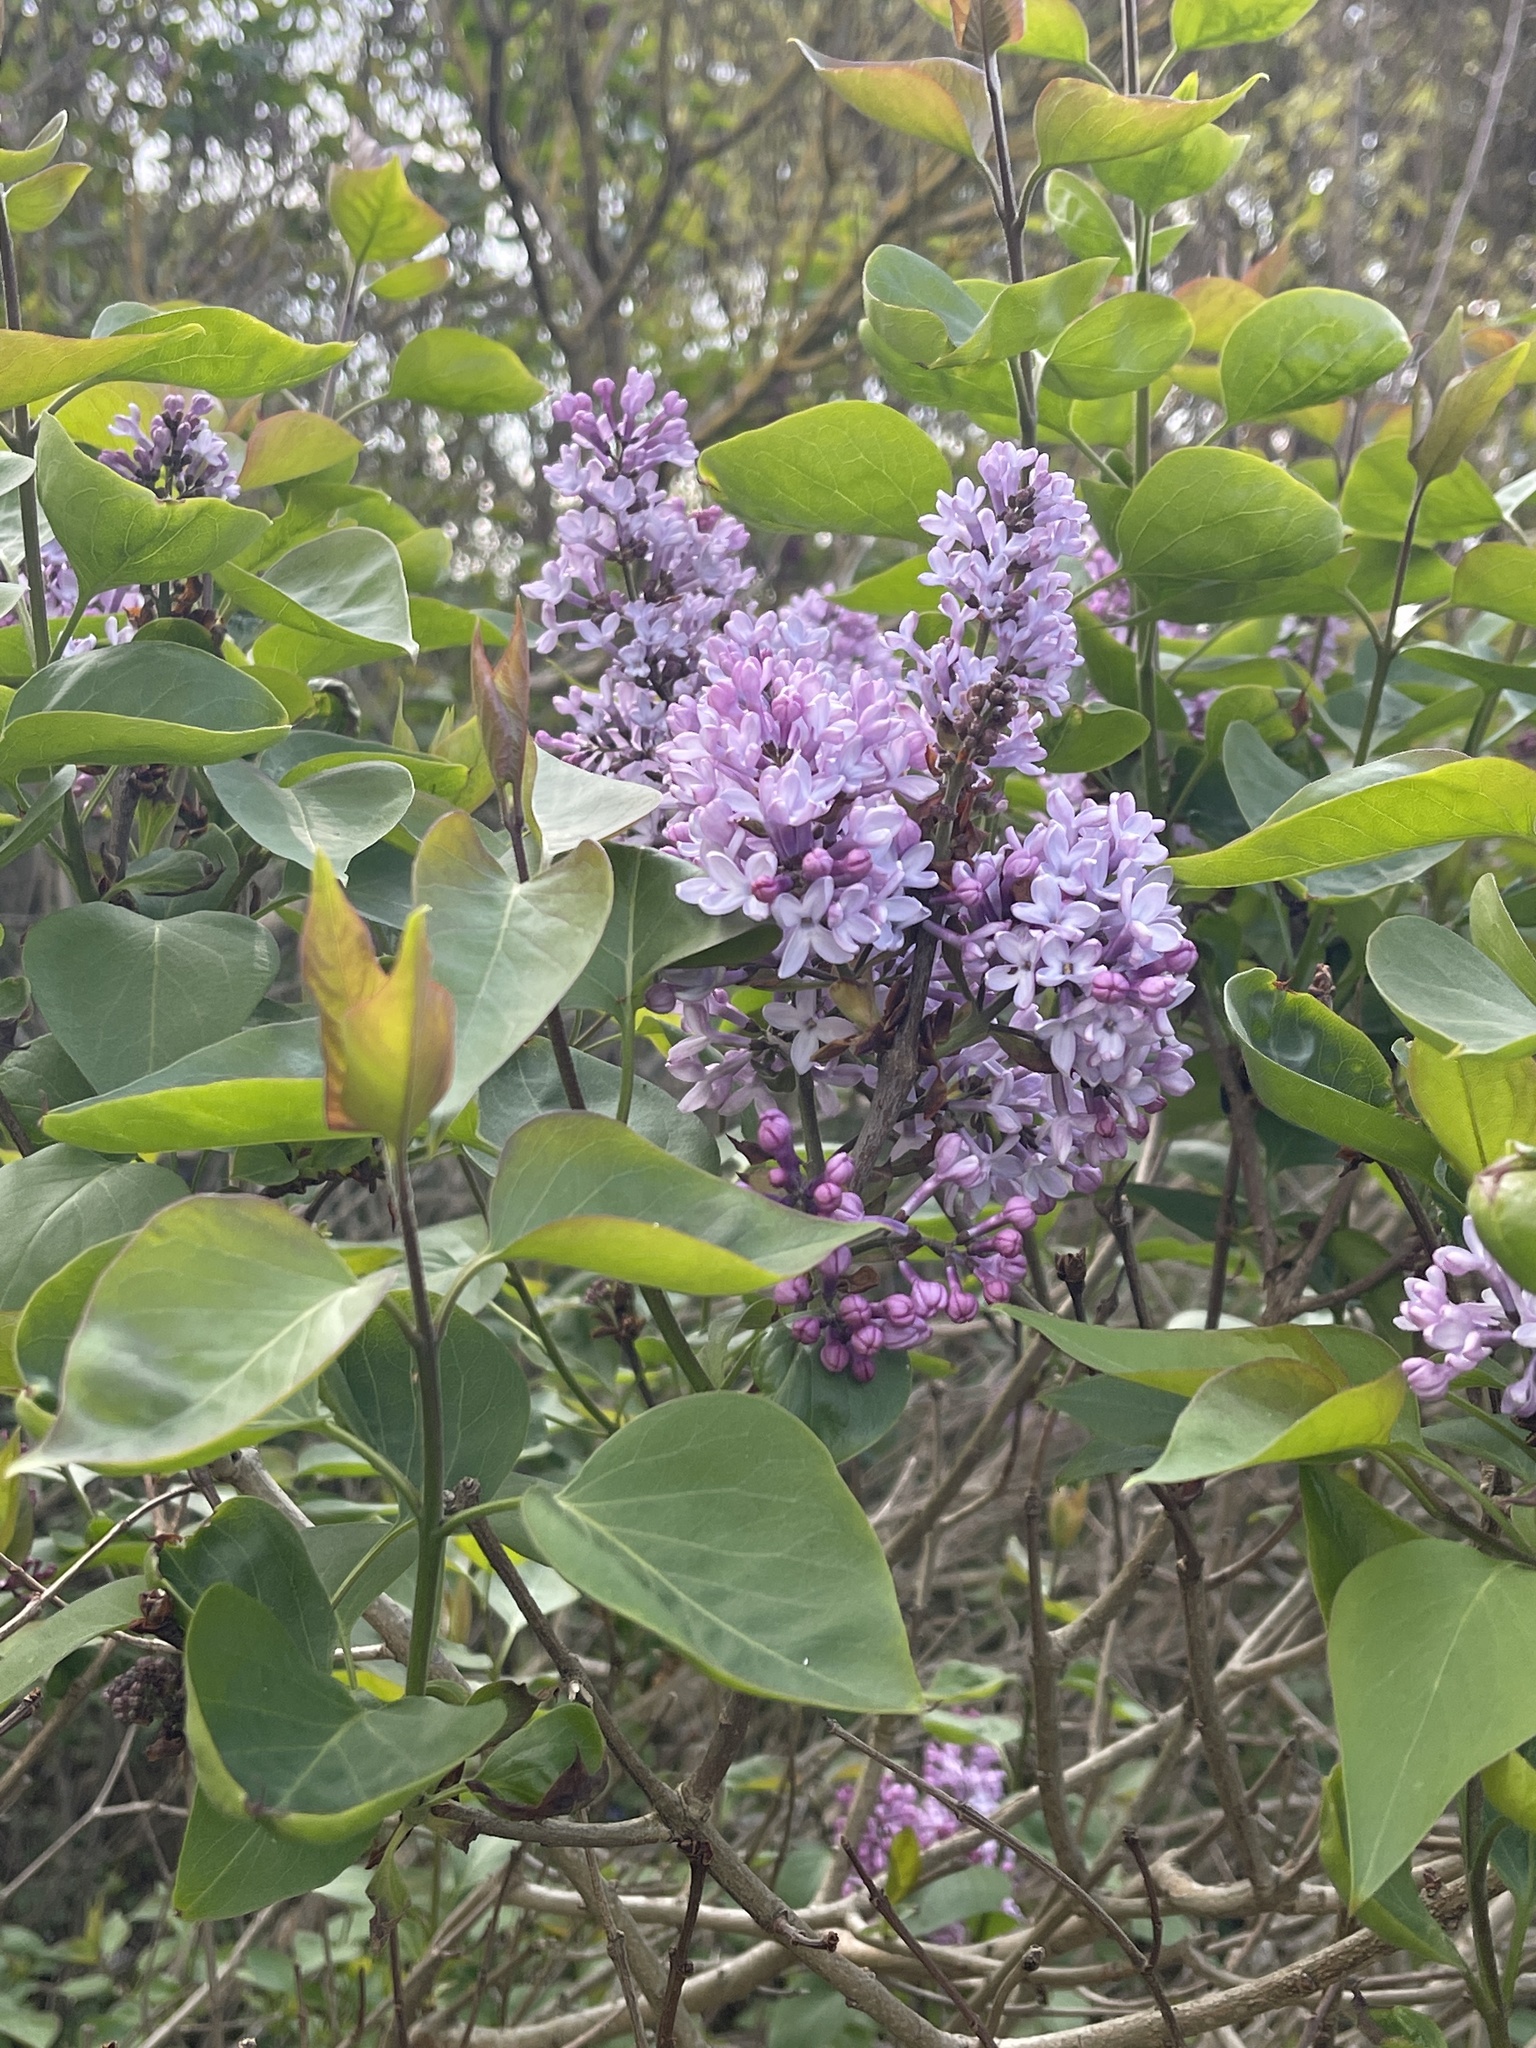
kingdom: Plantae
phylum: Tracheophyta
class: Magnoliopsida
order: Lamiales
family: Oleaceae
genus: Syringa
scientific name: Syringa vulgaris
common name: Common lilac
